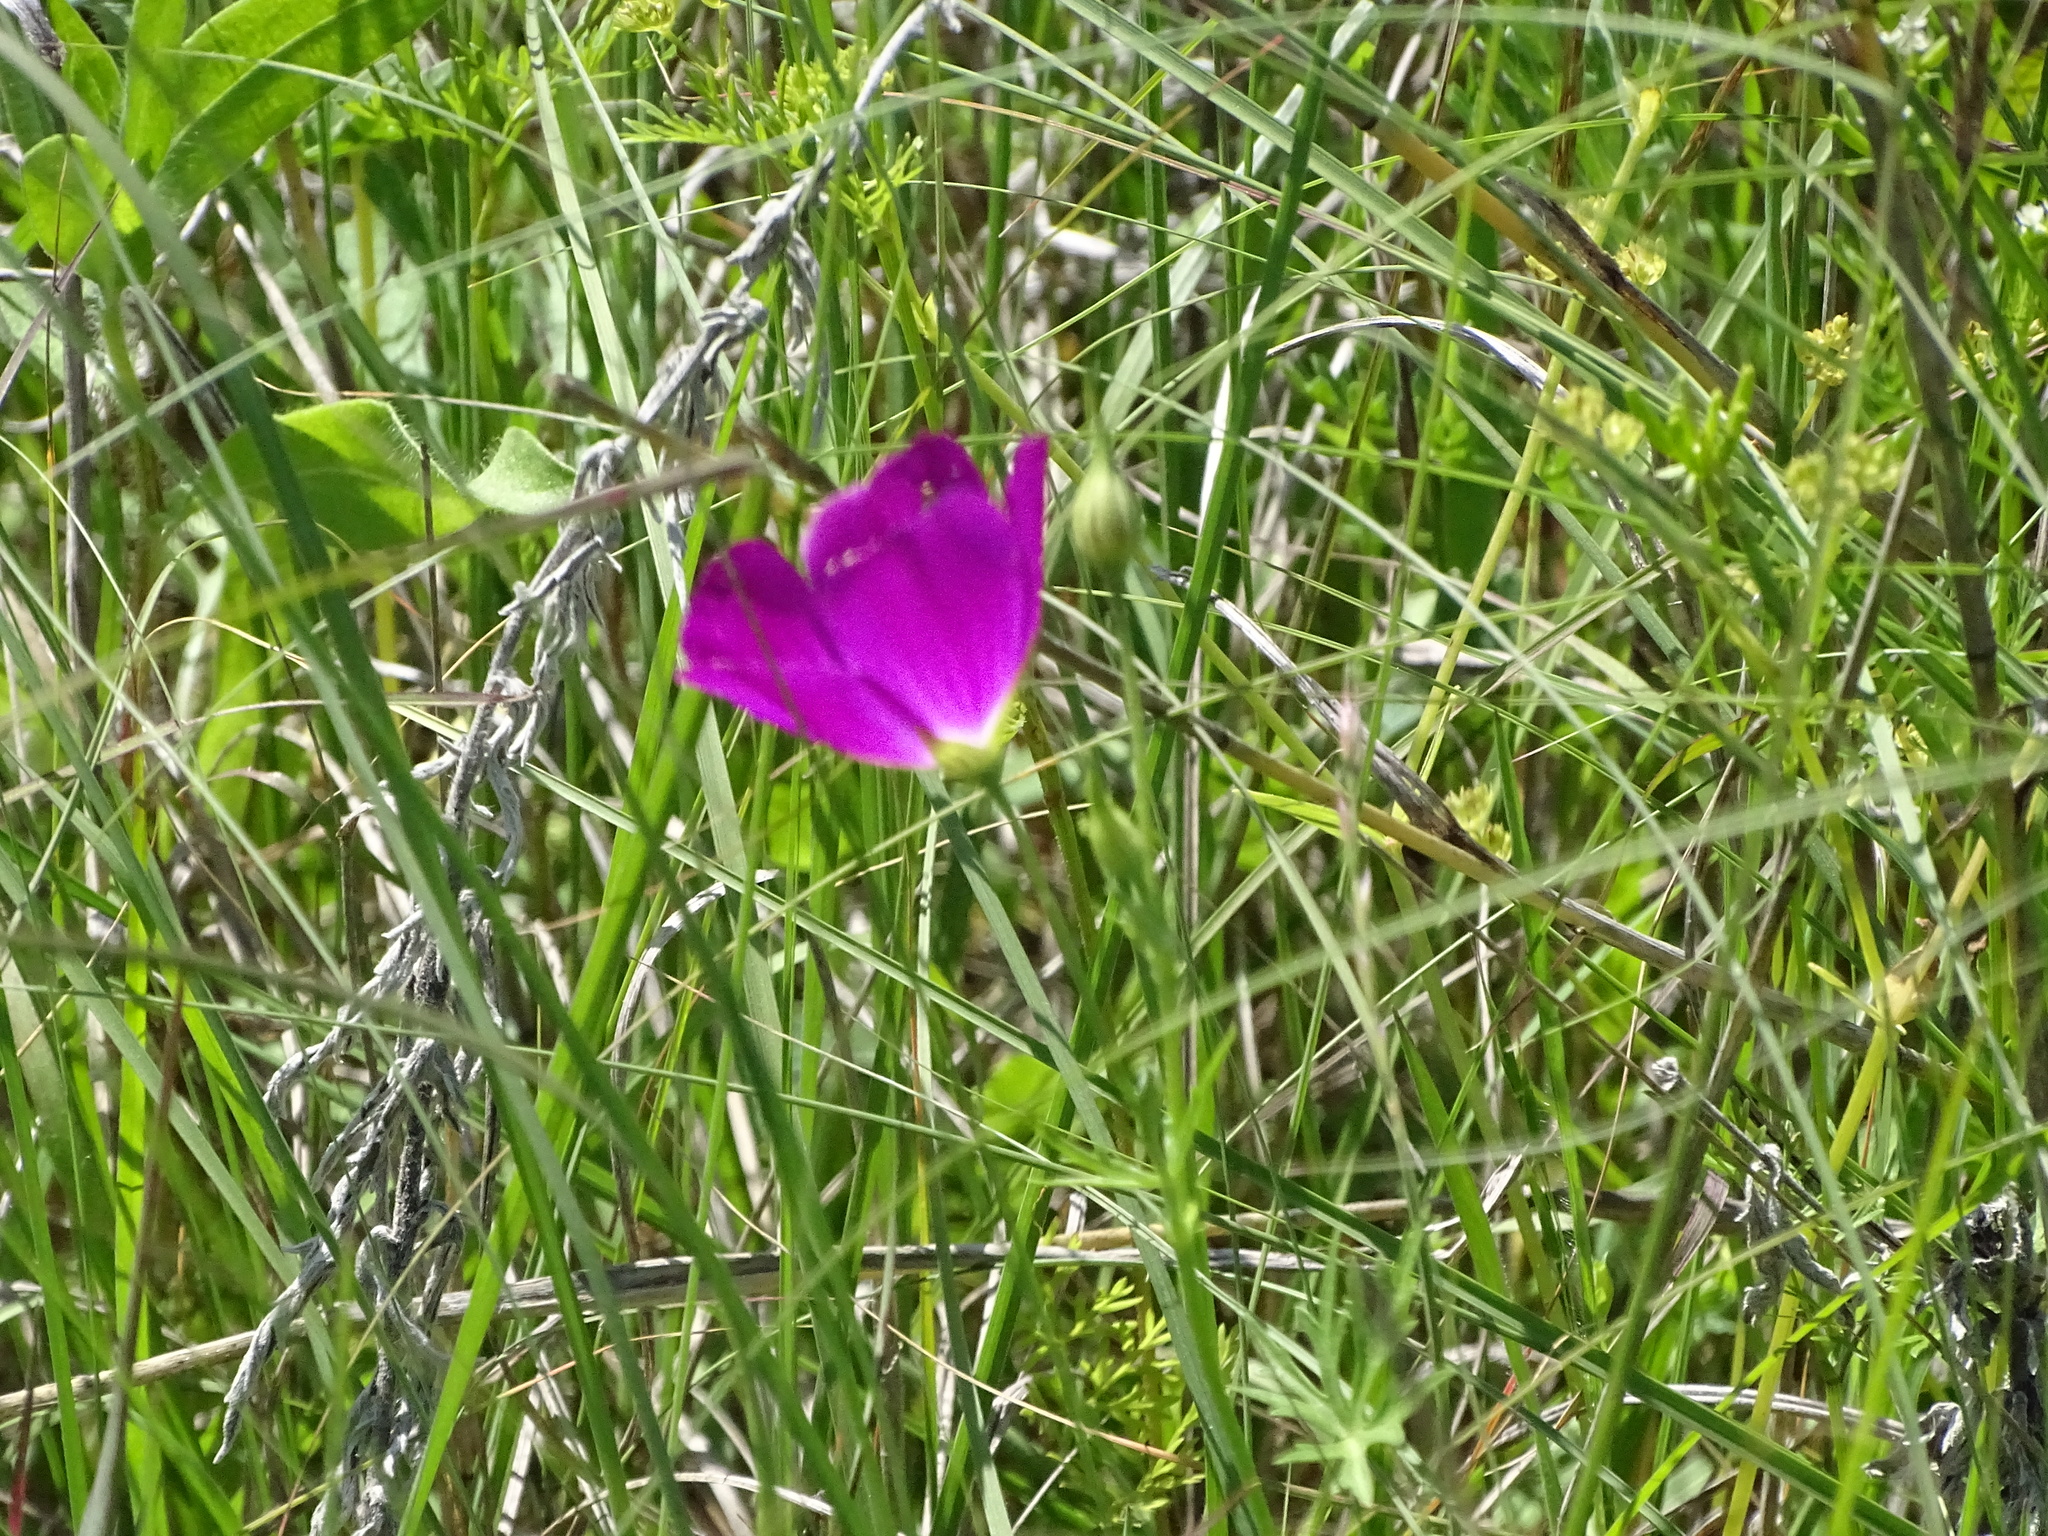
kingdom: Plantae
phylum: Tracheophyta
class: Magnoliopsida
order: Malvales
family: Malvaceae
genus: Callirhoe
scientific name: Callirhoe leiocarpa
